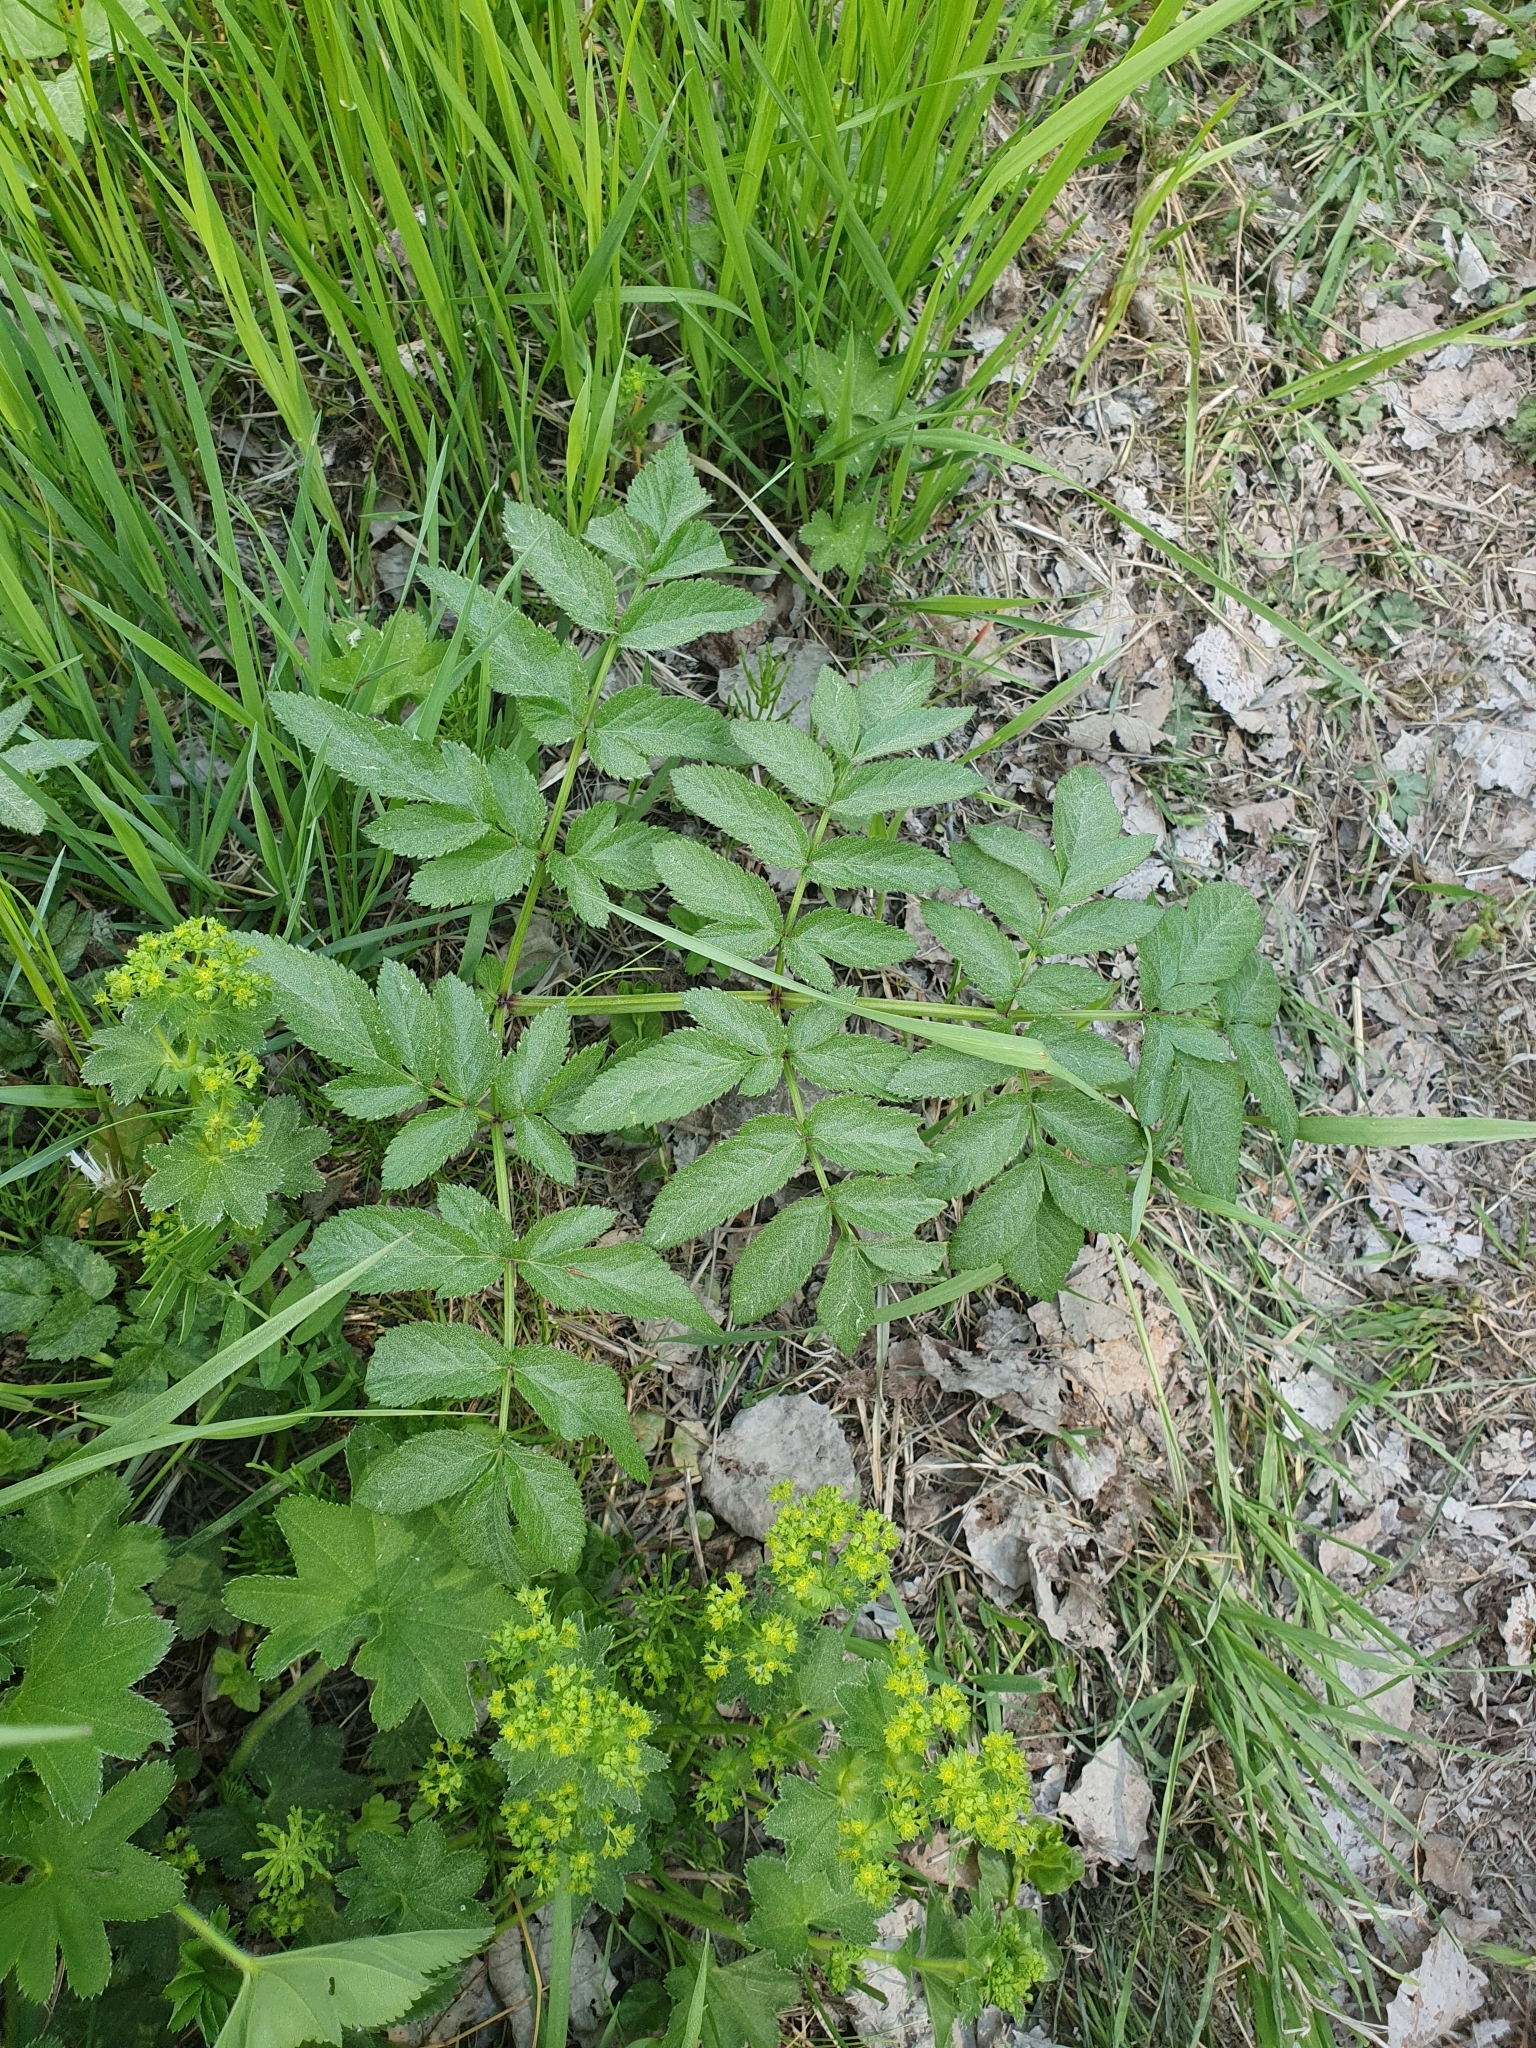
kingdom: Plantae
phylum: Tracheophyta
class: Magnoliopsida
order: Apiales
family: Apiaceae
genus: Angelica
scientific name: Angelica sylvestris
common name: Wild angelica
